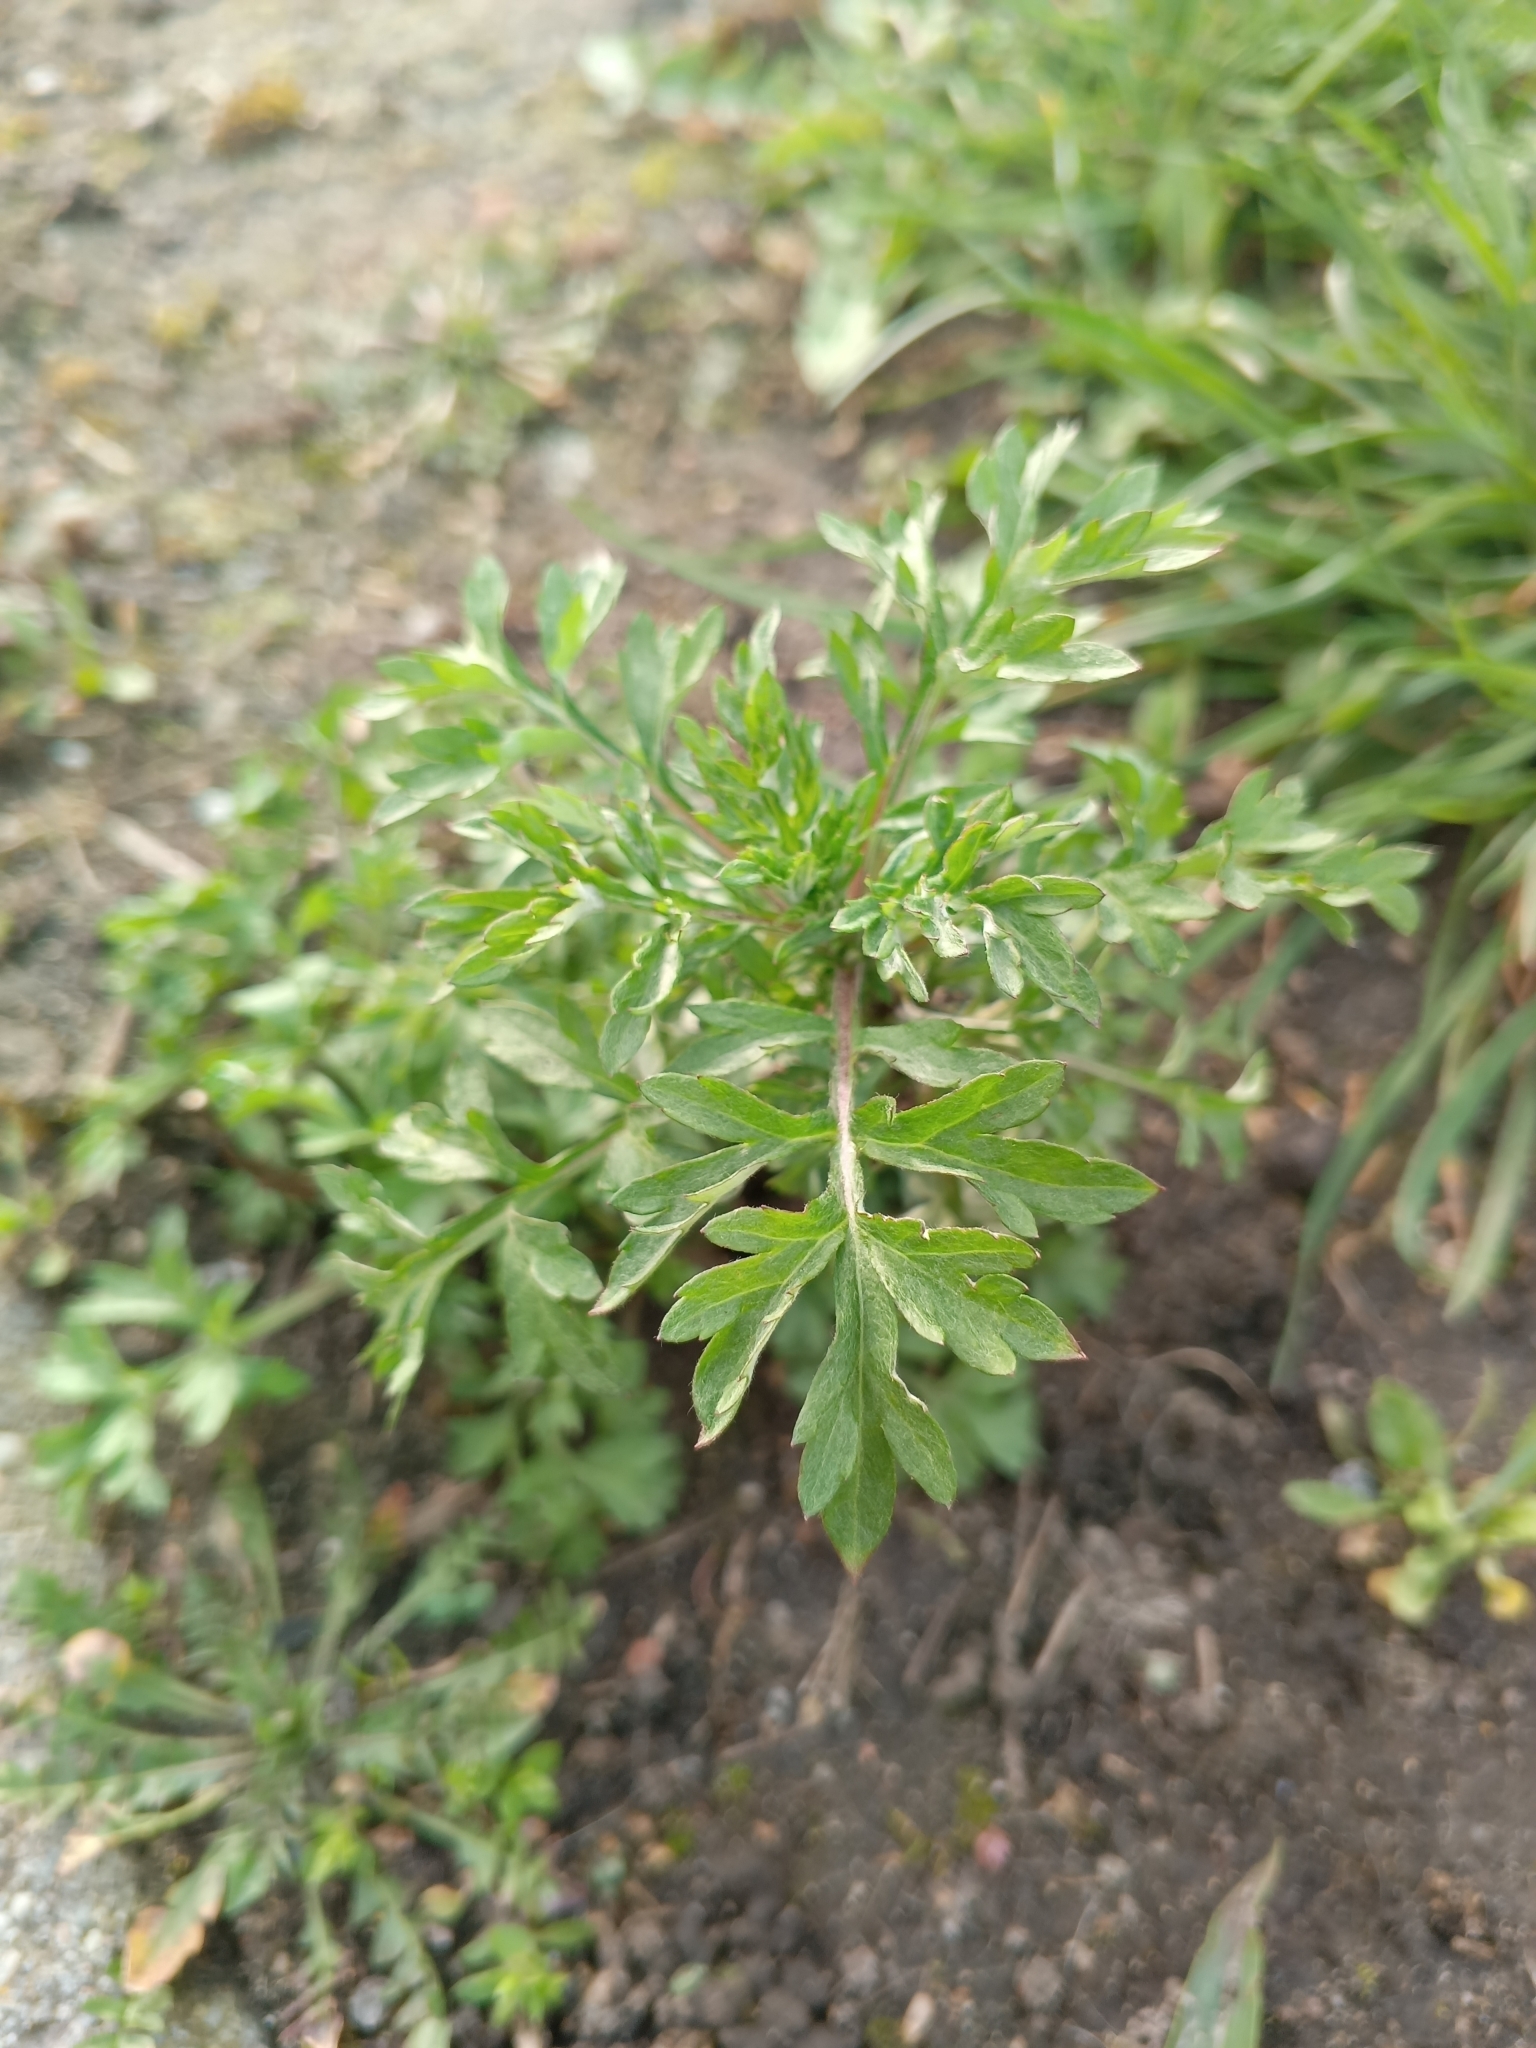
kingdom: Plantae
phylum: Tracheophyta
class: Magnoliopsida
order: Asterales
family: Asteraceae
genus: Artemisia
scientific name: Artemisia vulgaris
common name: Mugwort
